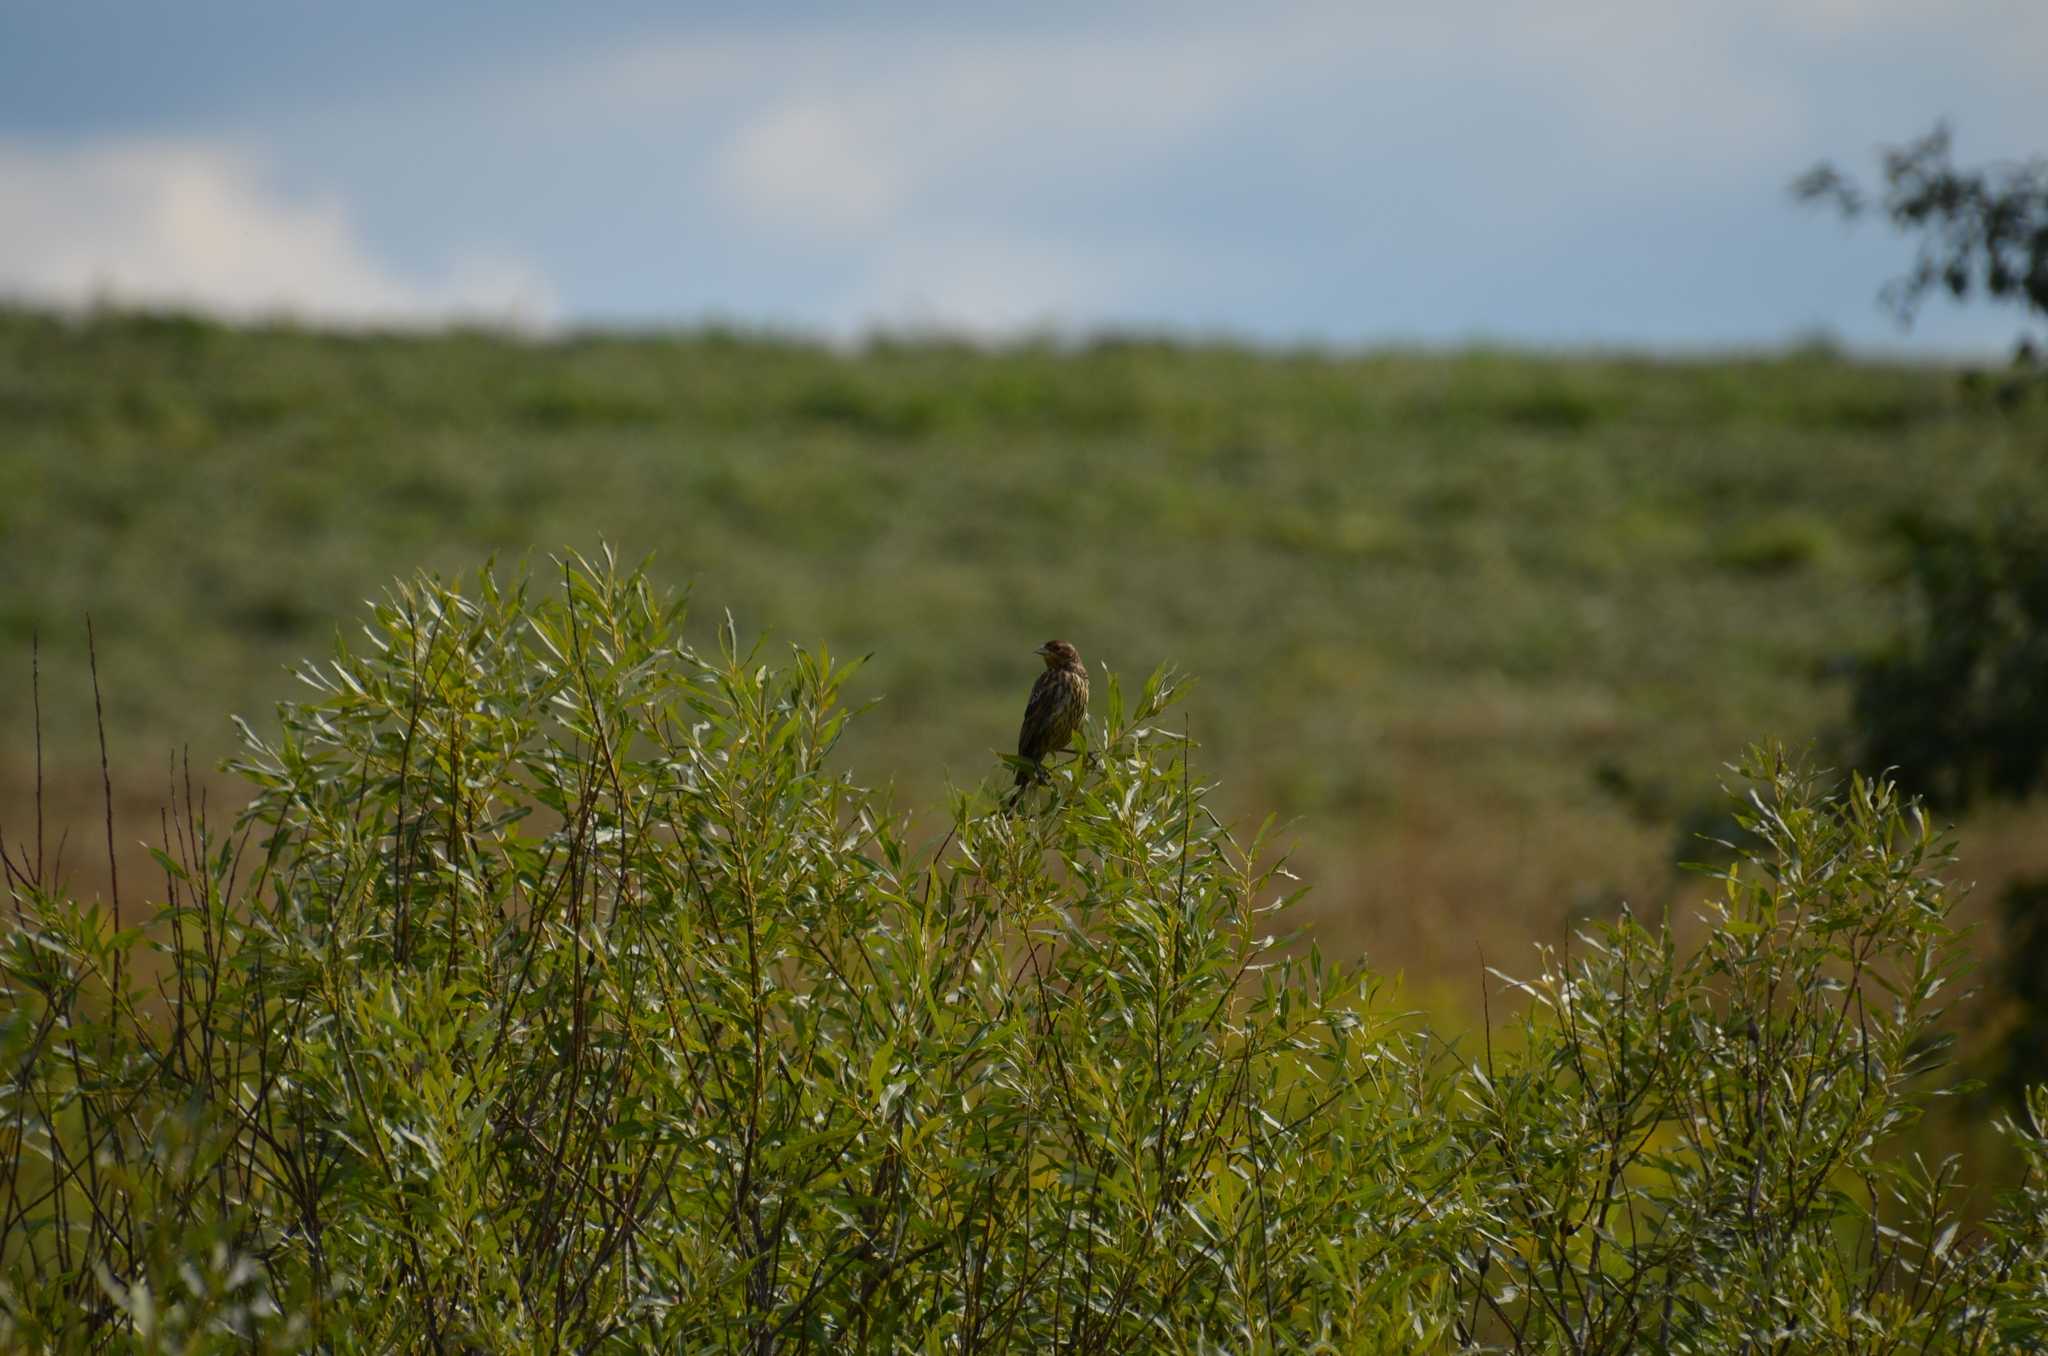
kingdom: Animalia
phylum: Chordata
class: Aves
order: Passeriformes
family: Icteridae
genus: Agelaius
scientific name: Agelaius phoeniceus
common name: Red-winged blackbird
